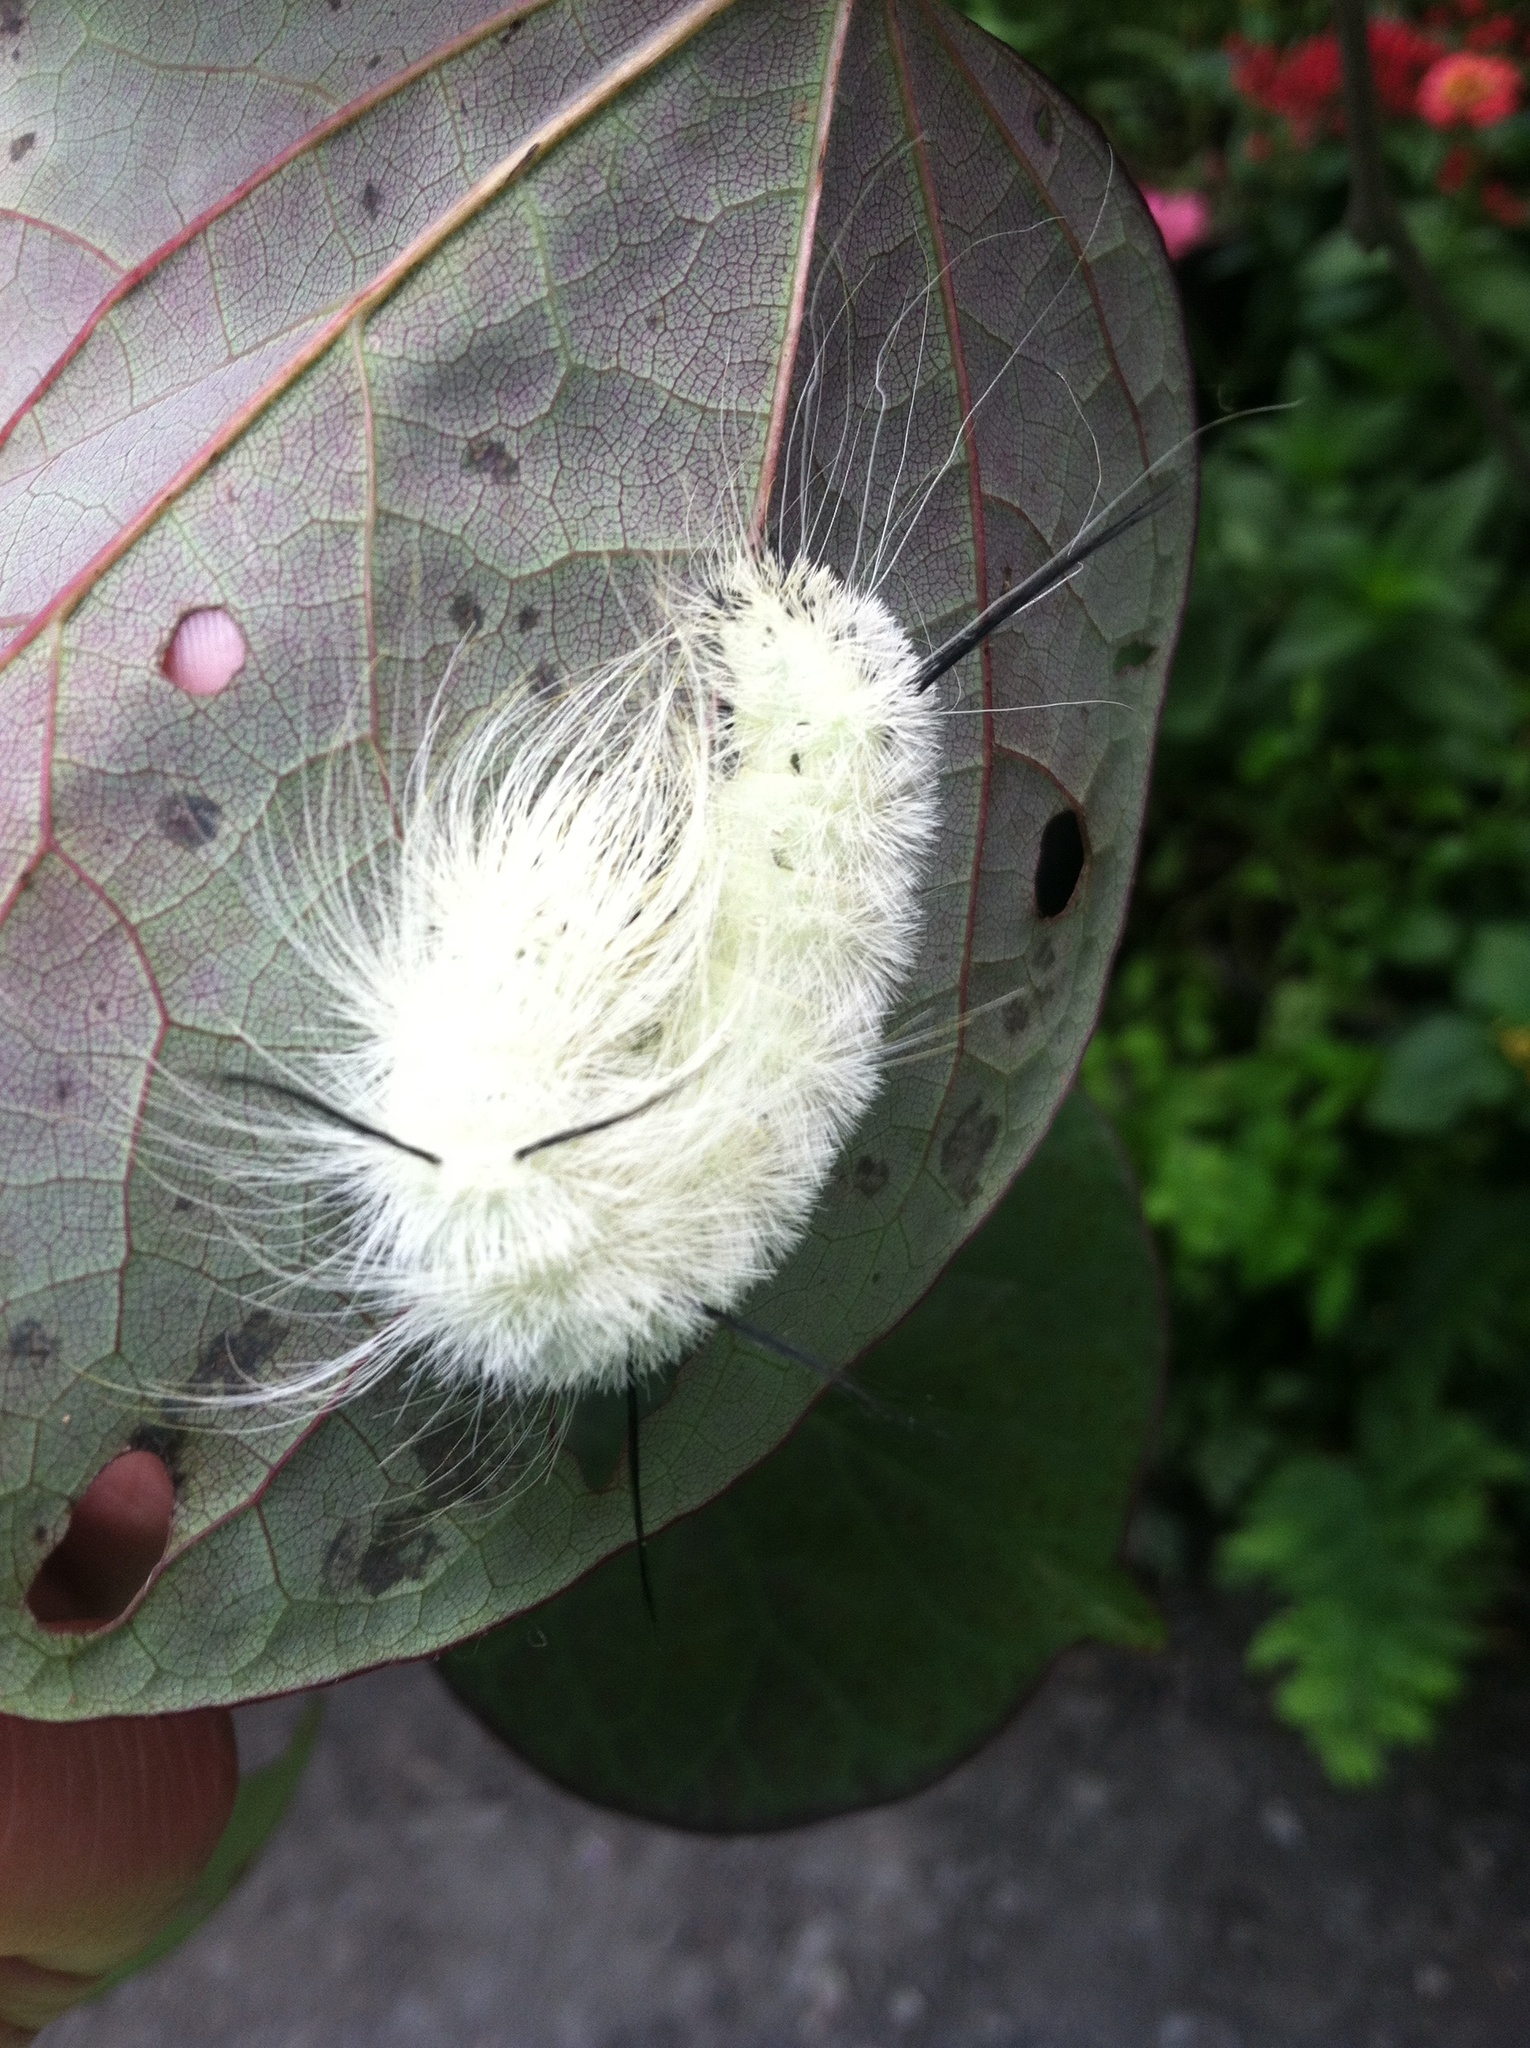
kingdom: Animalia
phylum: Arthropoda
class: Insecta
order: Lepidoptera
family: Noctuidae
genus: Acronicta
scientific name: Acronicta americana
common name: American dagger
